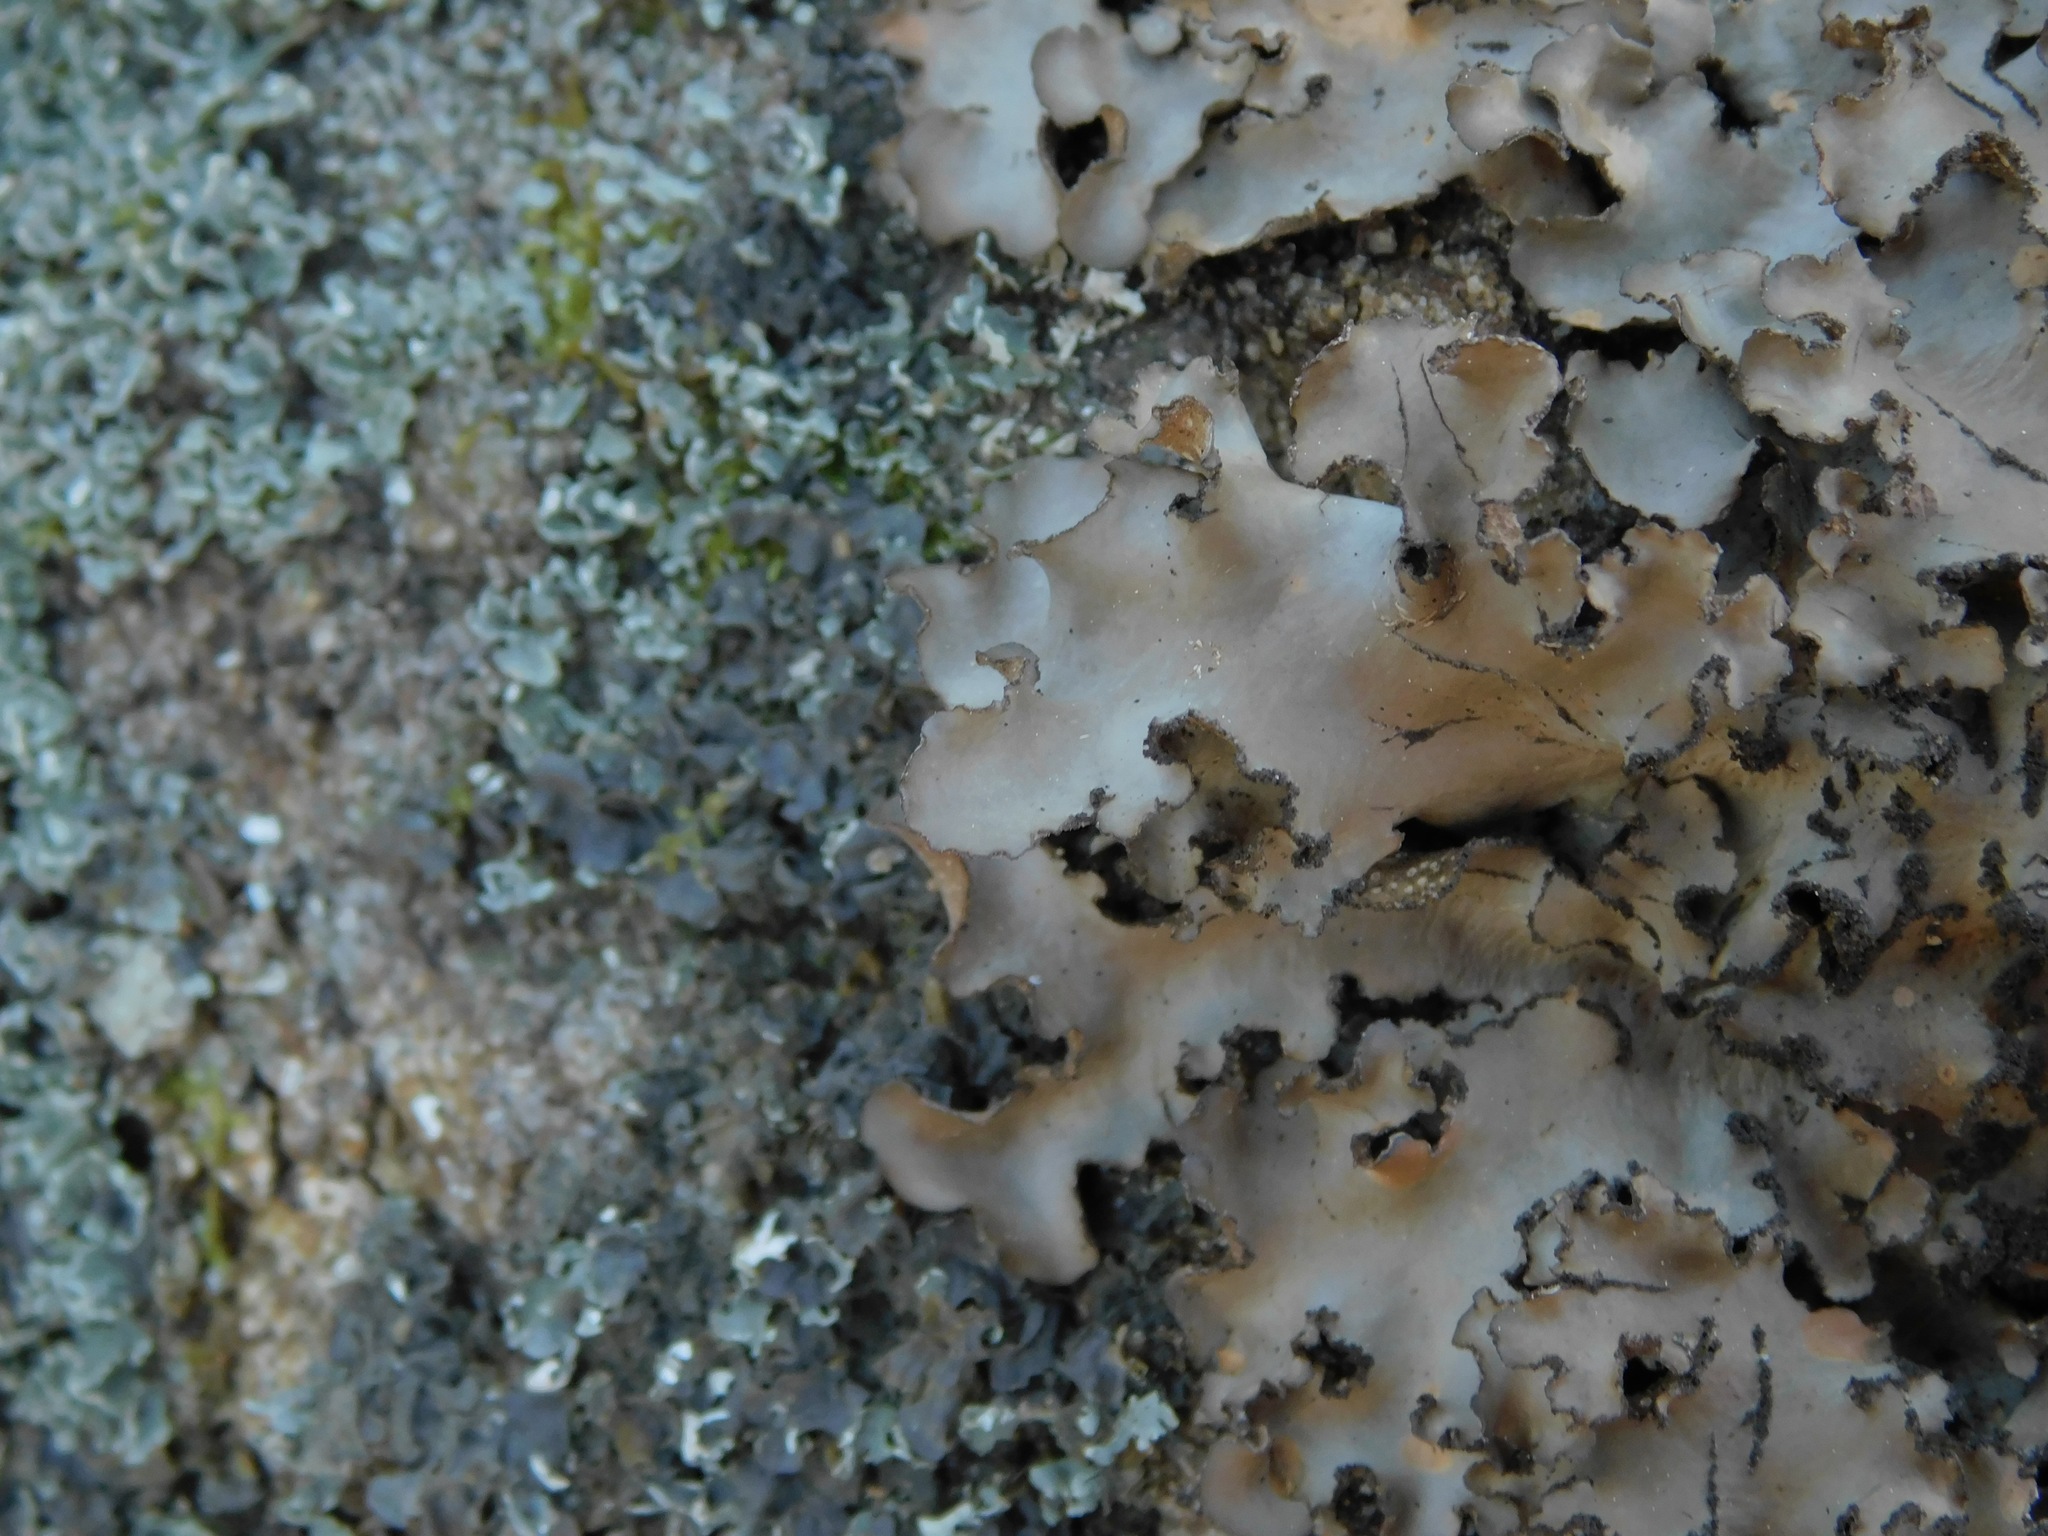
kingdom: Fungi
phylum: Ascomycota
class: Lecanoromycetes
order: Peltigerales
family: Lobariaceae
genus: Sticta
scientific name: Sticta beauvoisii
